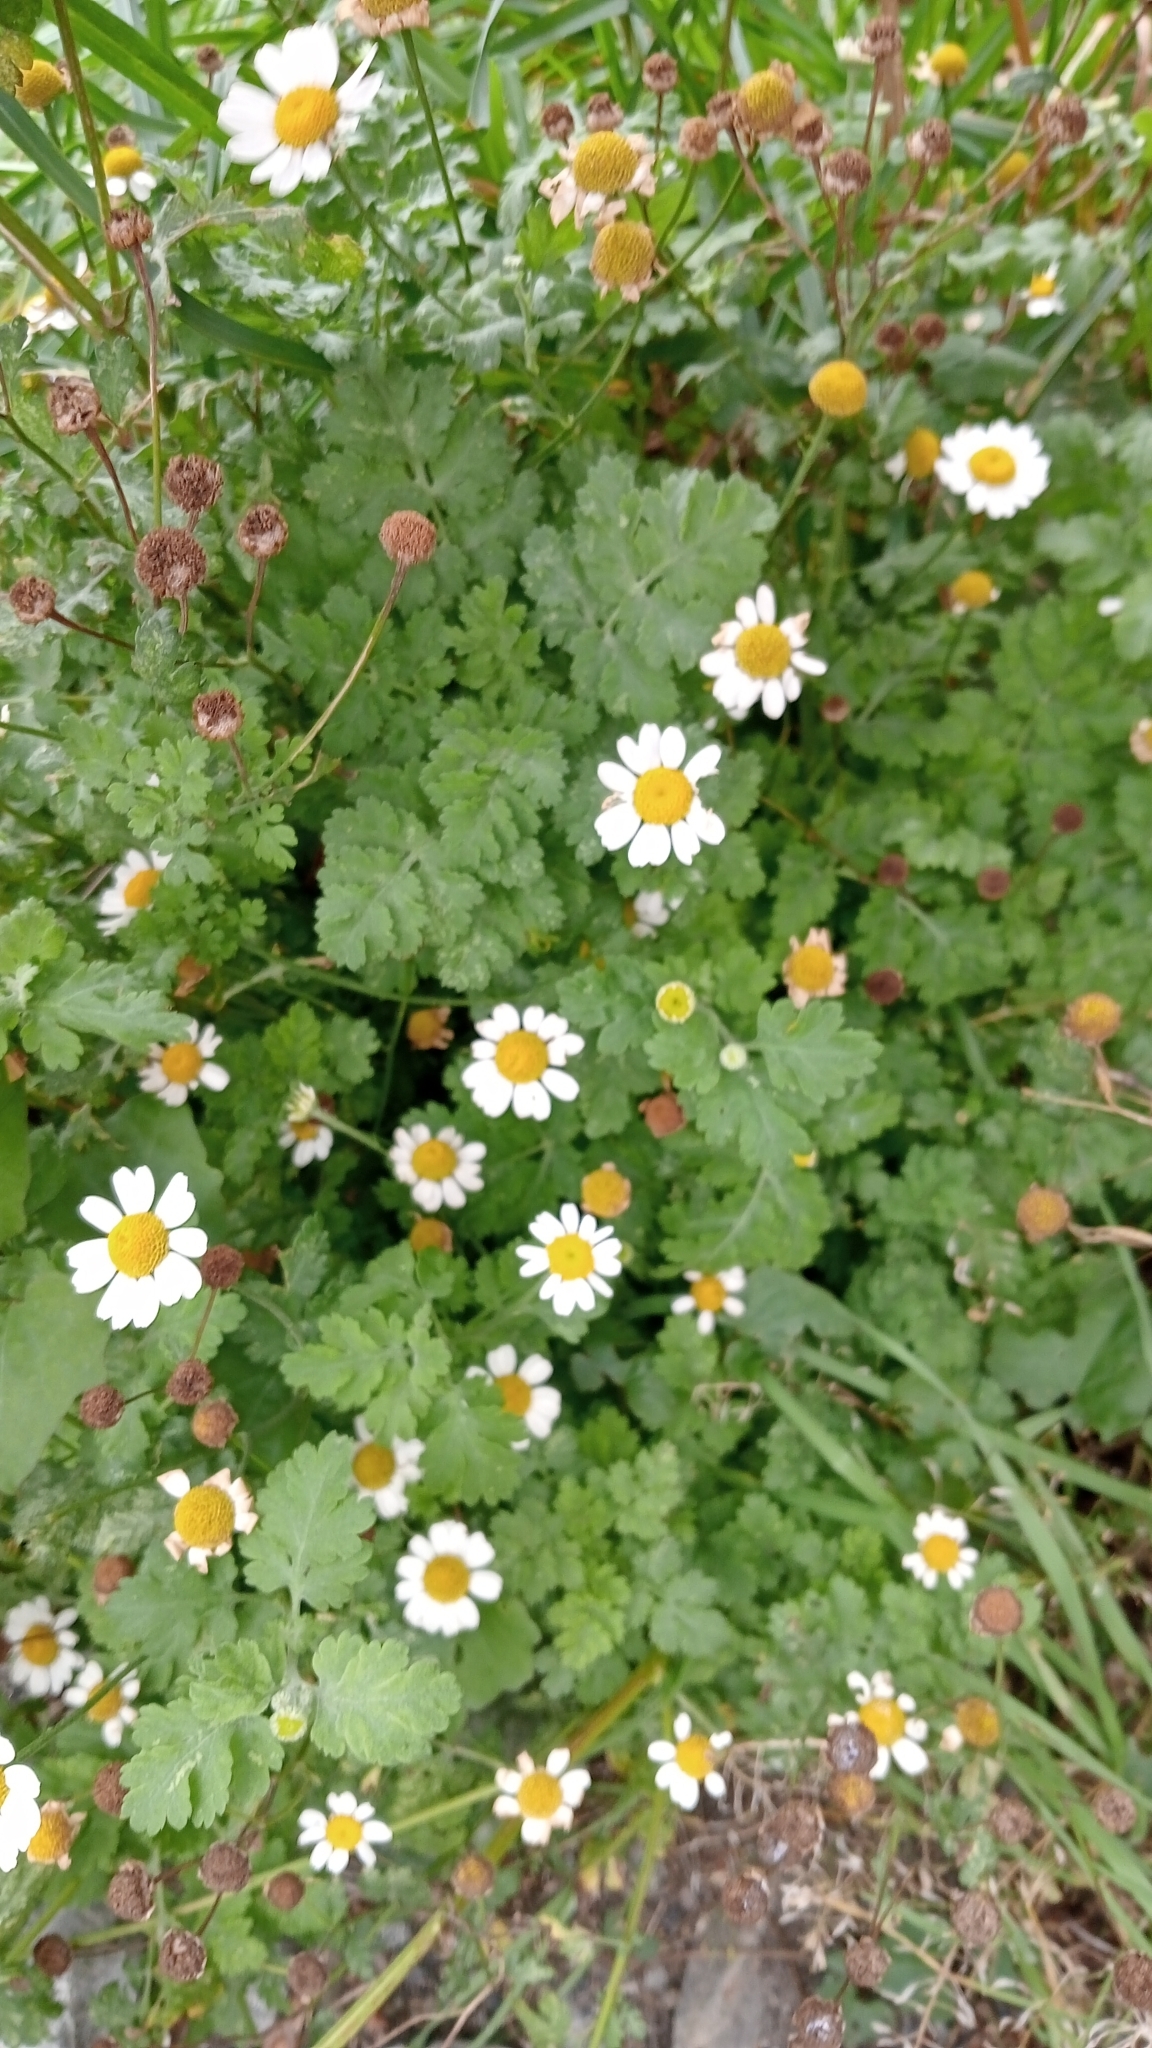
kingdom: Plantae
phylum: Tracheophyta
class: Magnoliopsida
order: Asterales
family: Asteraceae
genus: Tanacetum
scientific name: Tanacetum parthenium
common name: Feverfew
